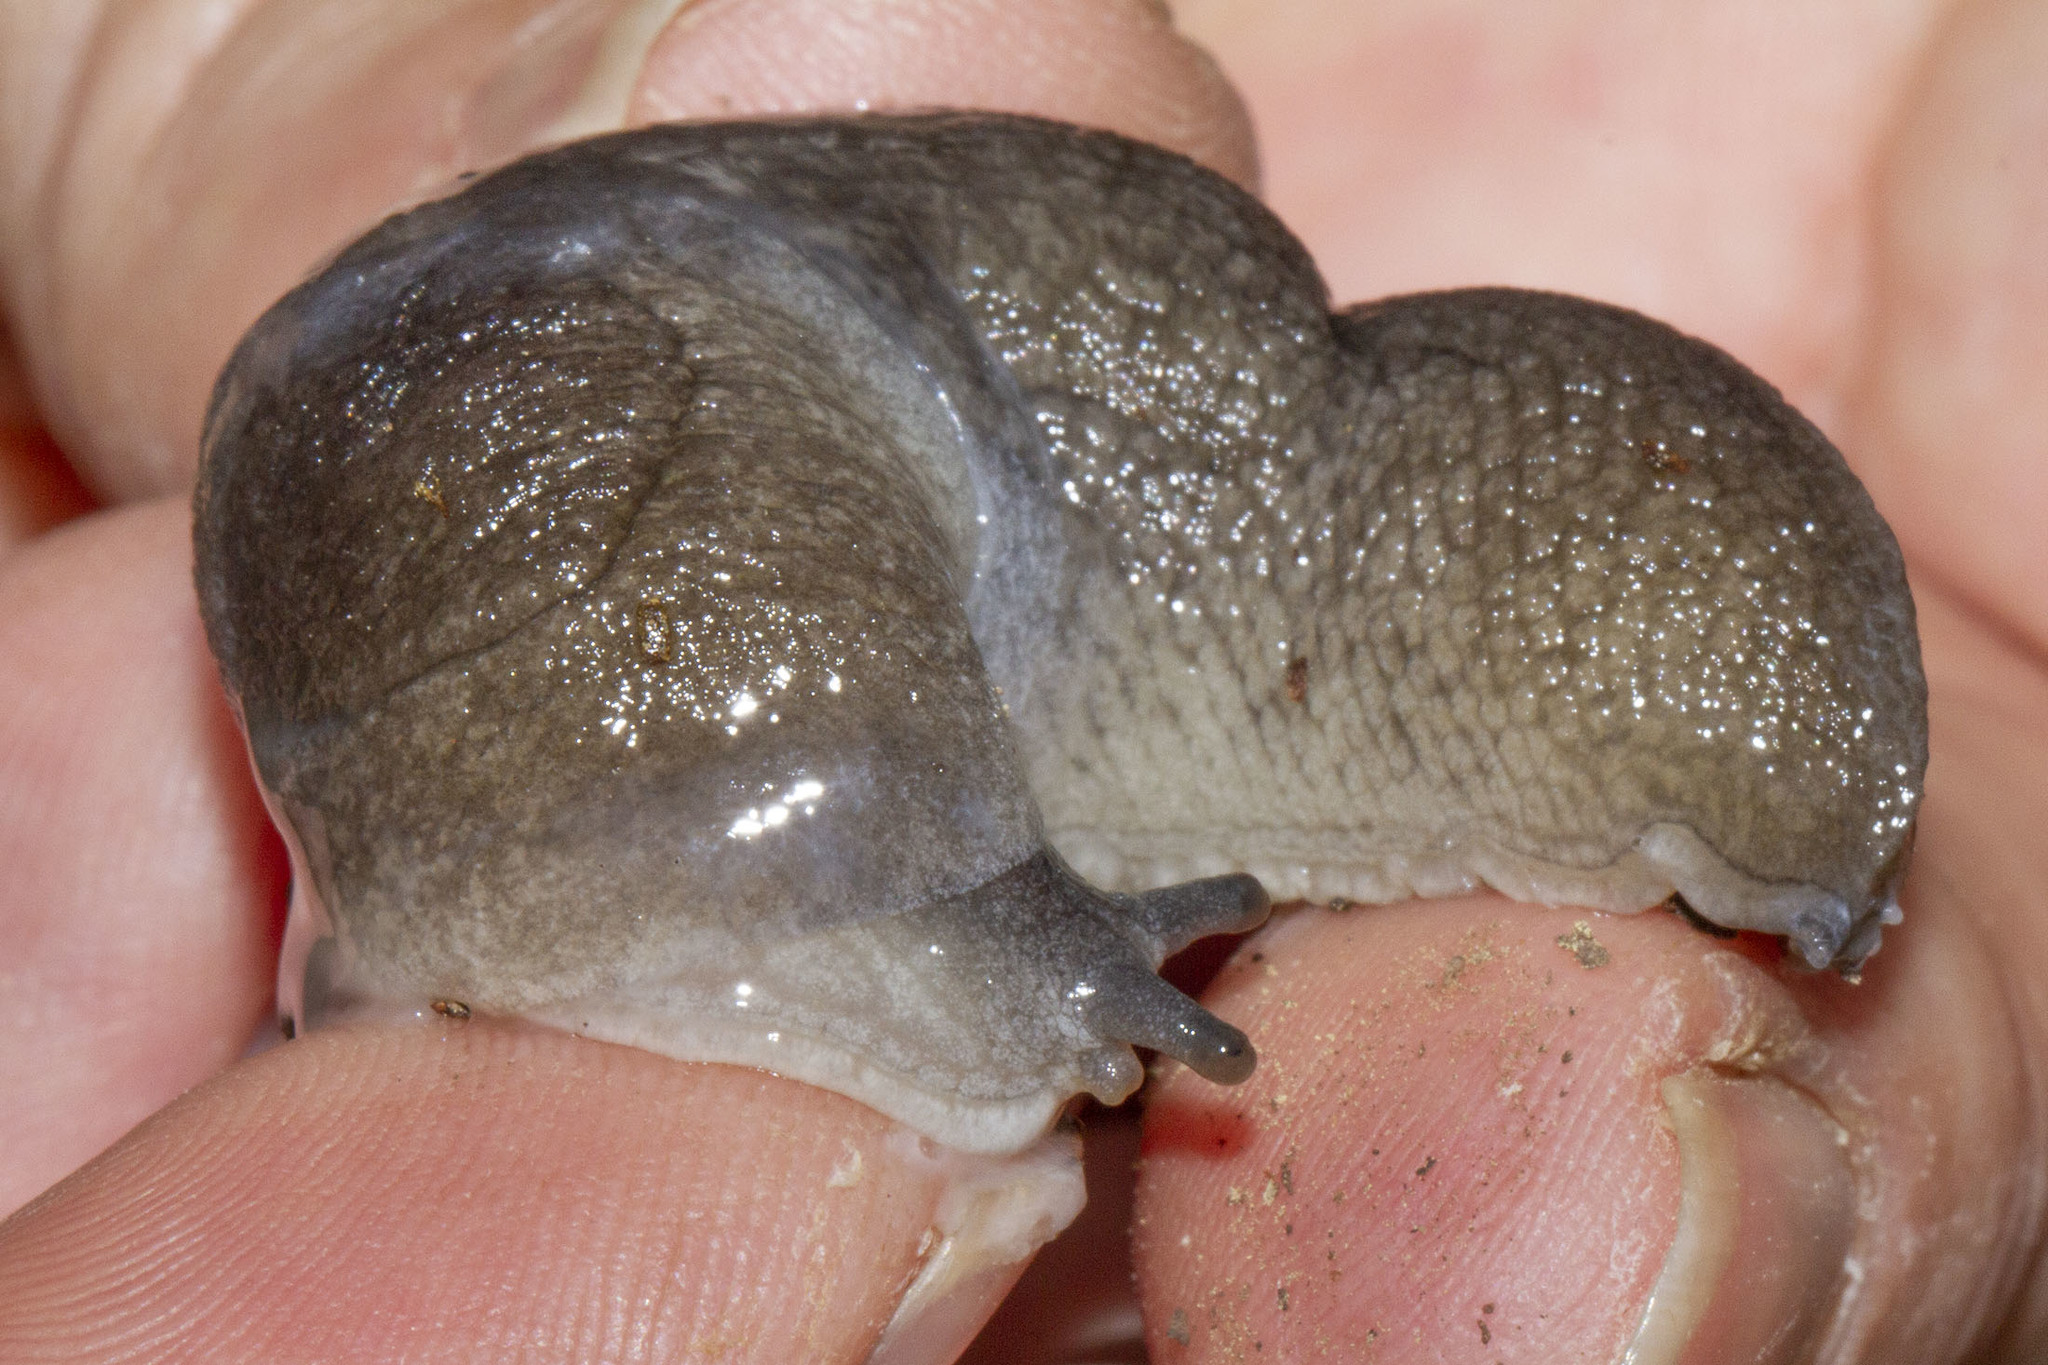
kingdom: Animalia
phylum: Mollusca
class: Gastropoda
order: Stylommatophora
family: Milacidae
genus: Tandonia
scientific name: Tandonia pageti
